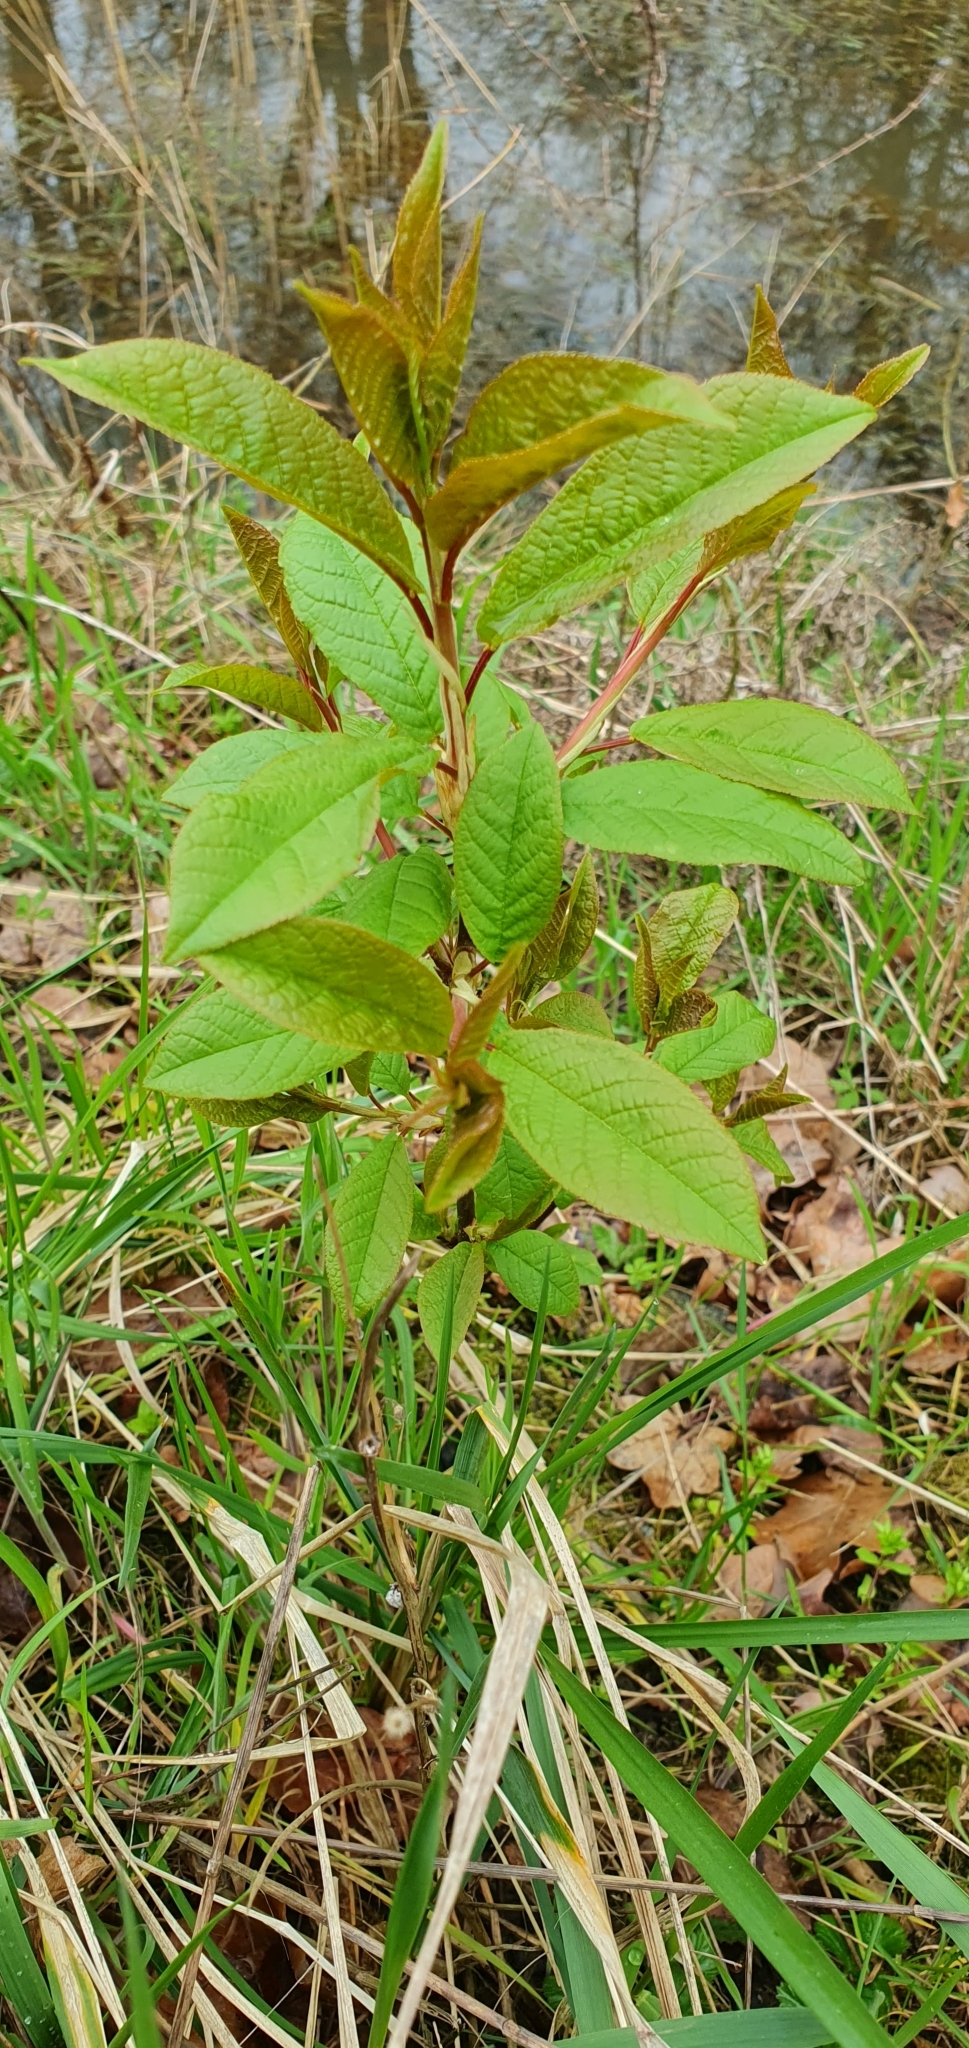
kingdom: Plantae
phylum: Tracheophyta
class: Magnoliopsida
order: Rosales
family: Rosaceae
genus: Prunus
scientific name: Prunus padus
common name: Bird cherry
